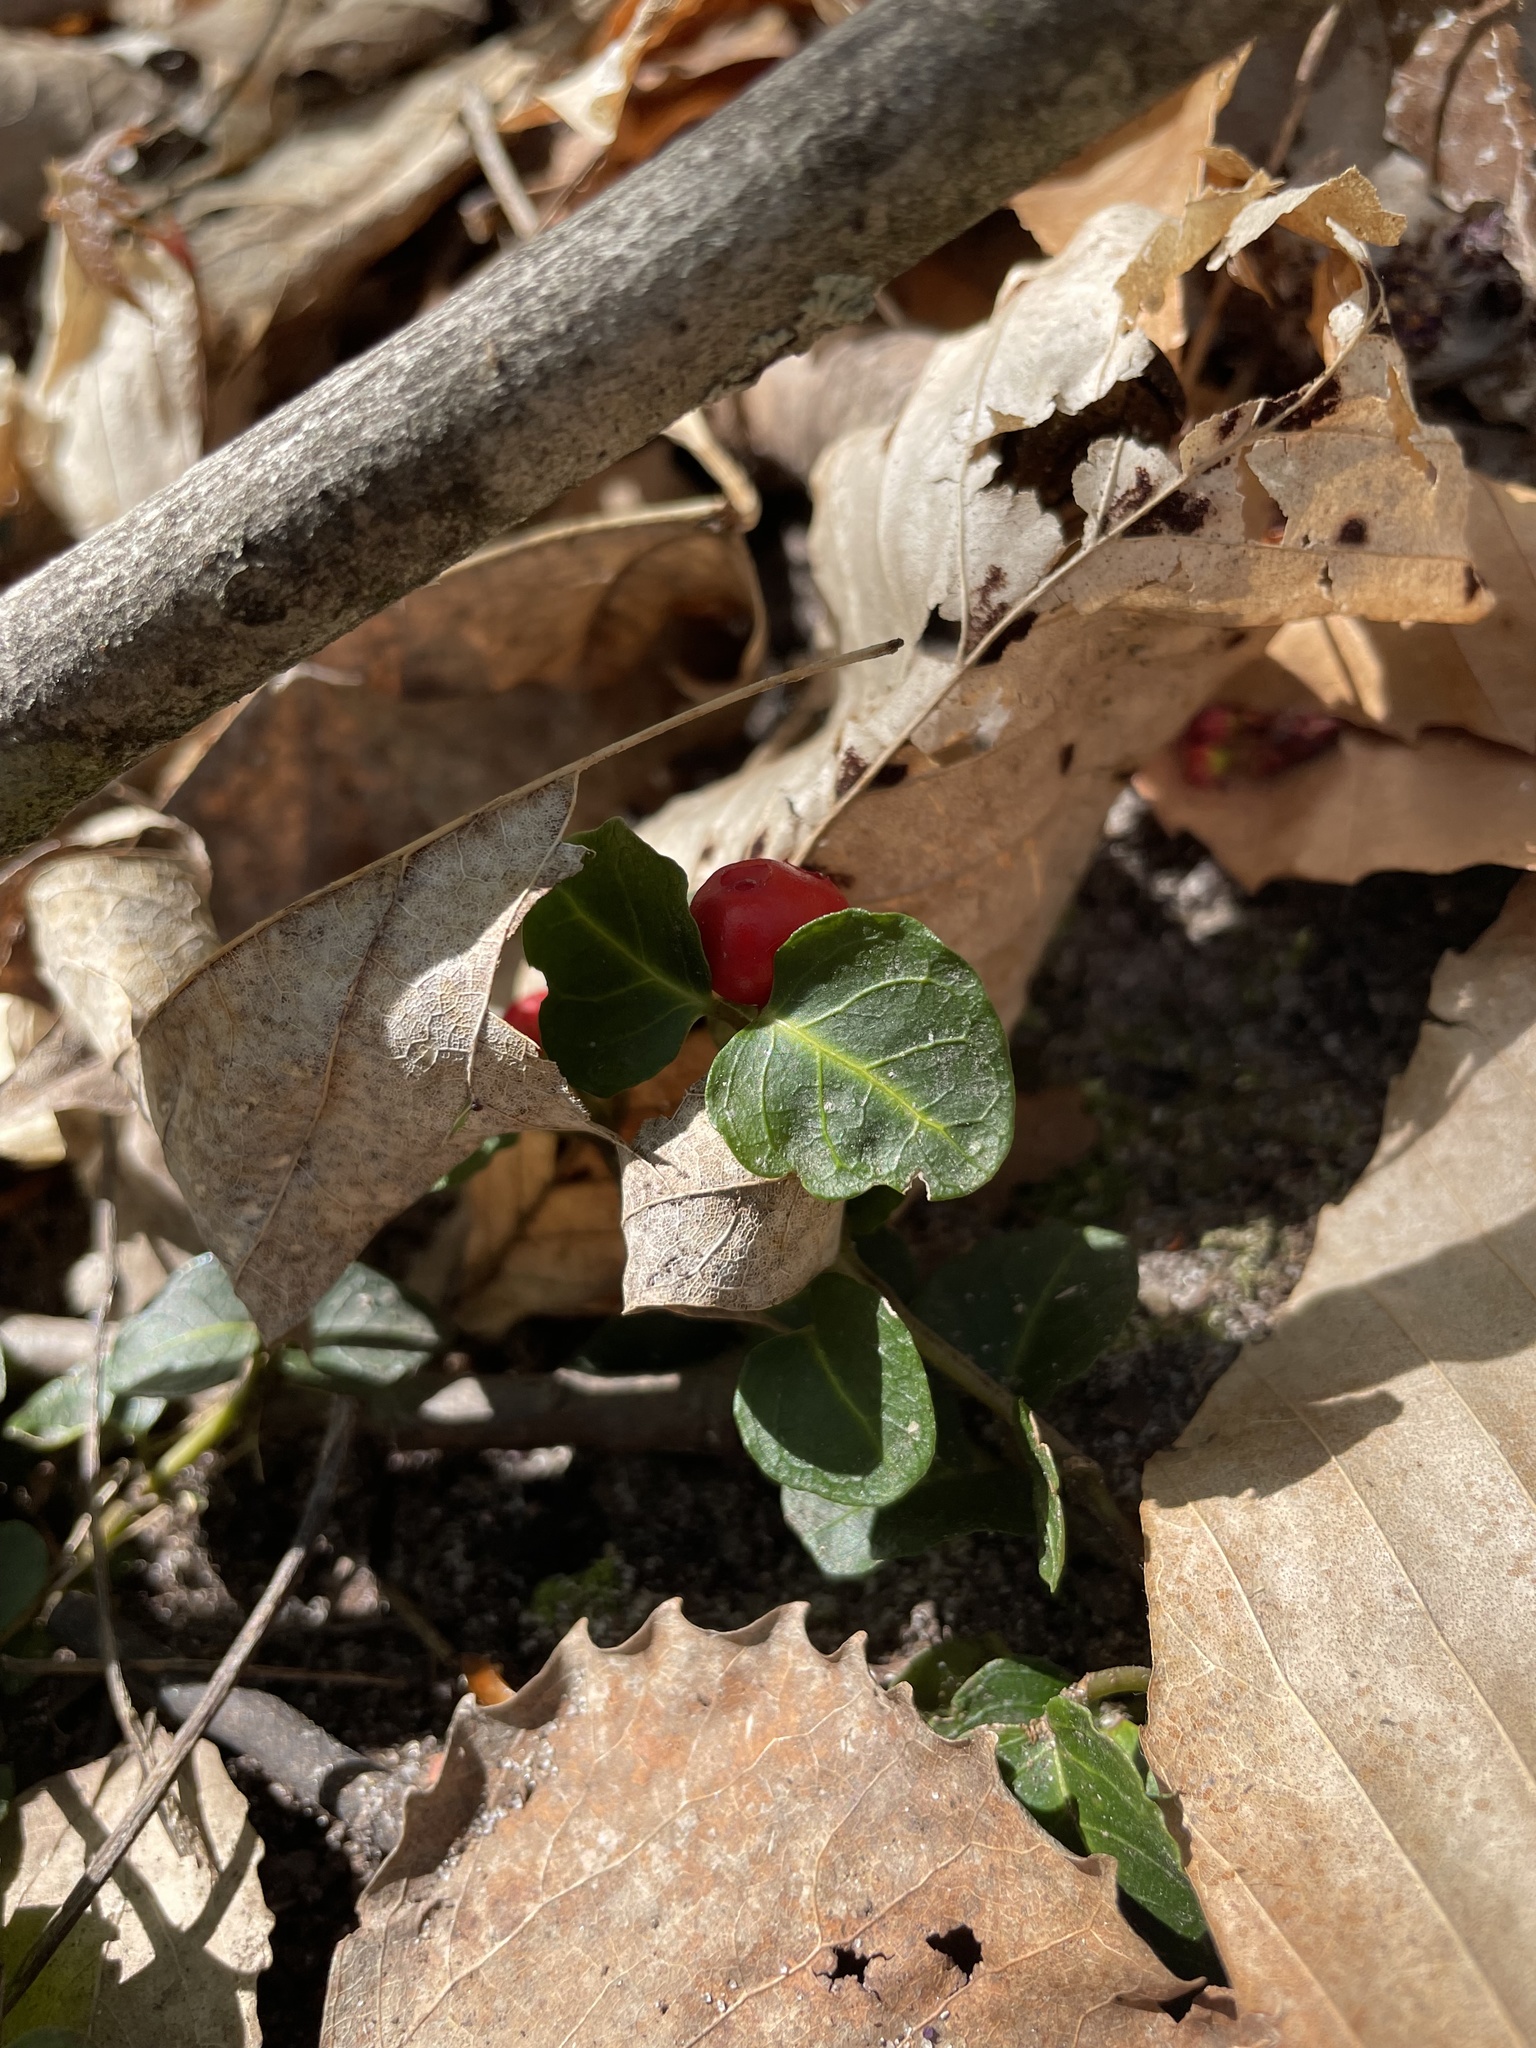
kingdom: Plantae
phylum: Tracheophyta
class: Magnoliopsida
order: Gentianales
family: Rubiaceae
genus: Mitchella
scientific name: Mitchella repens
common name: Partridge-berry
